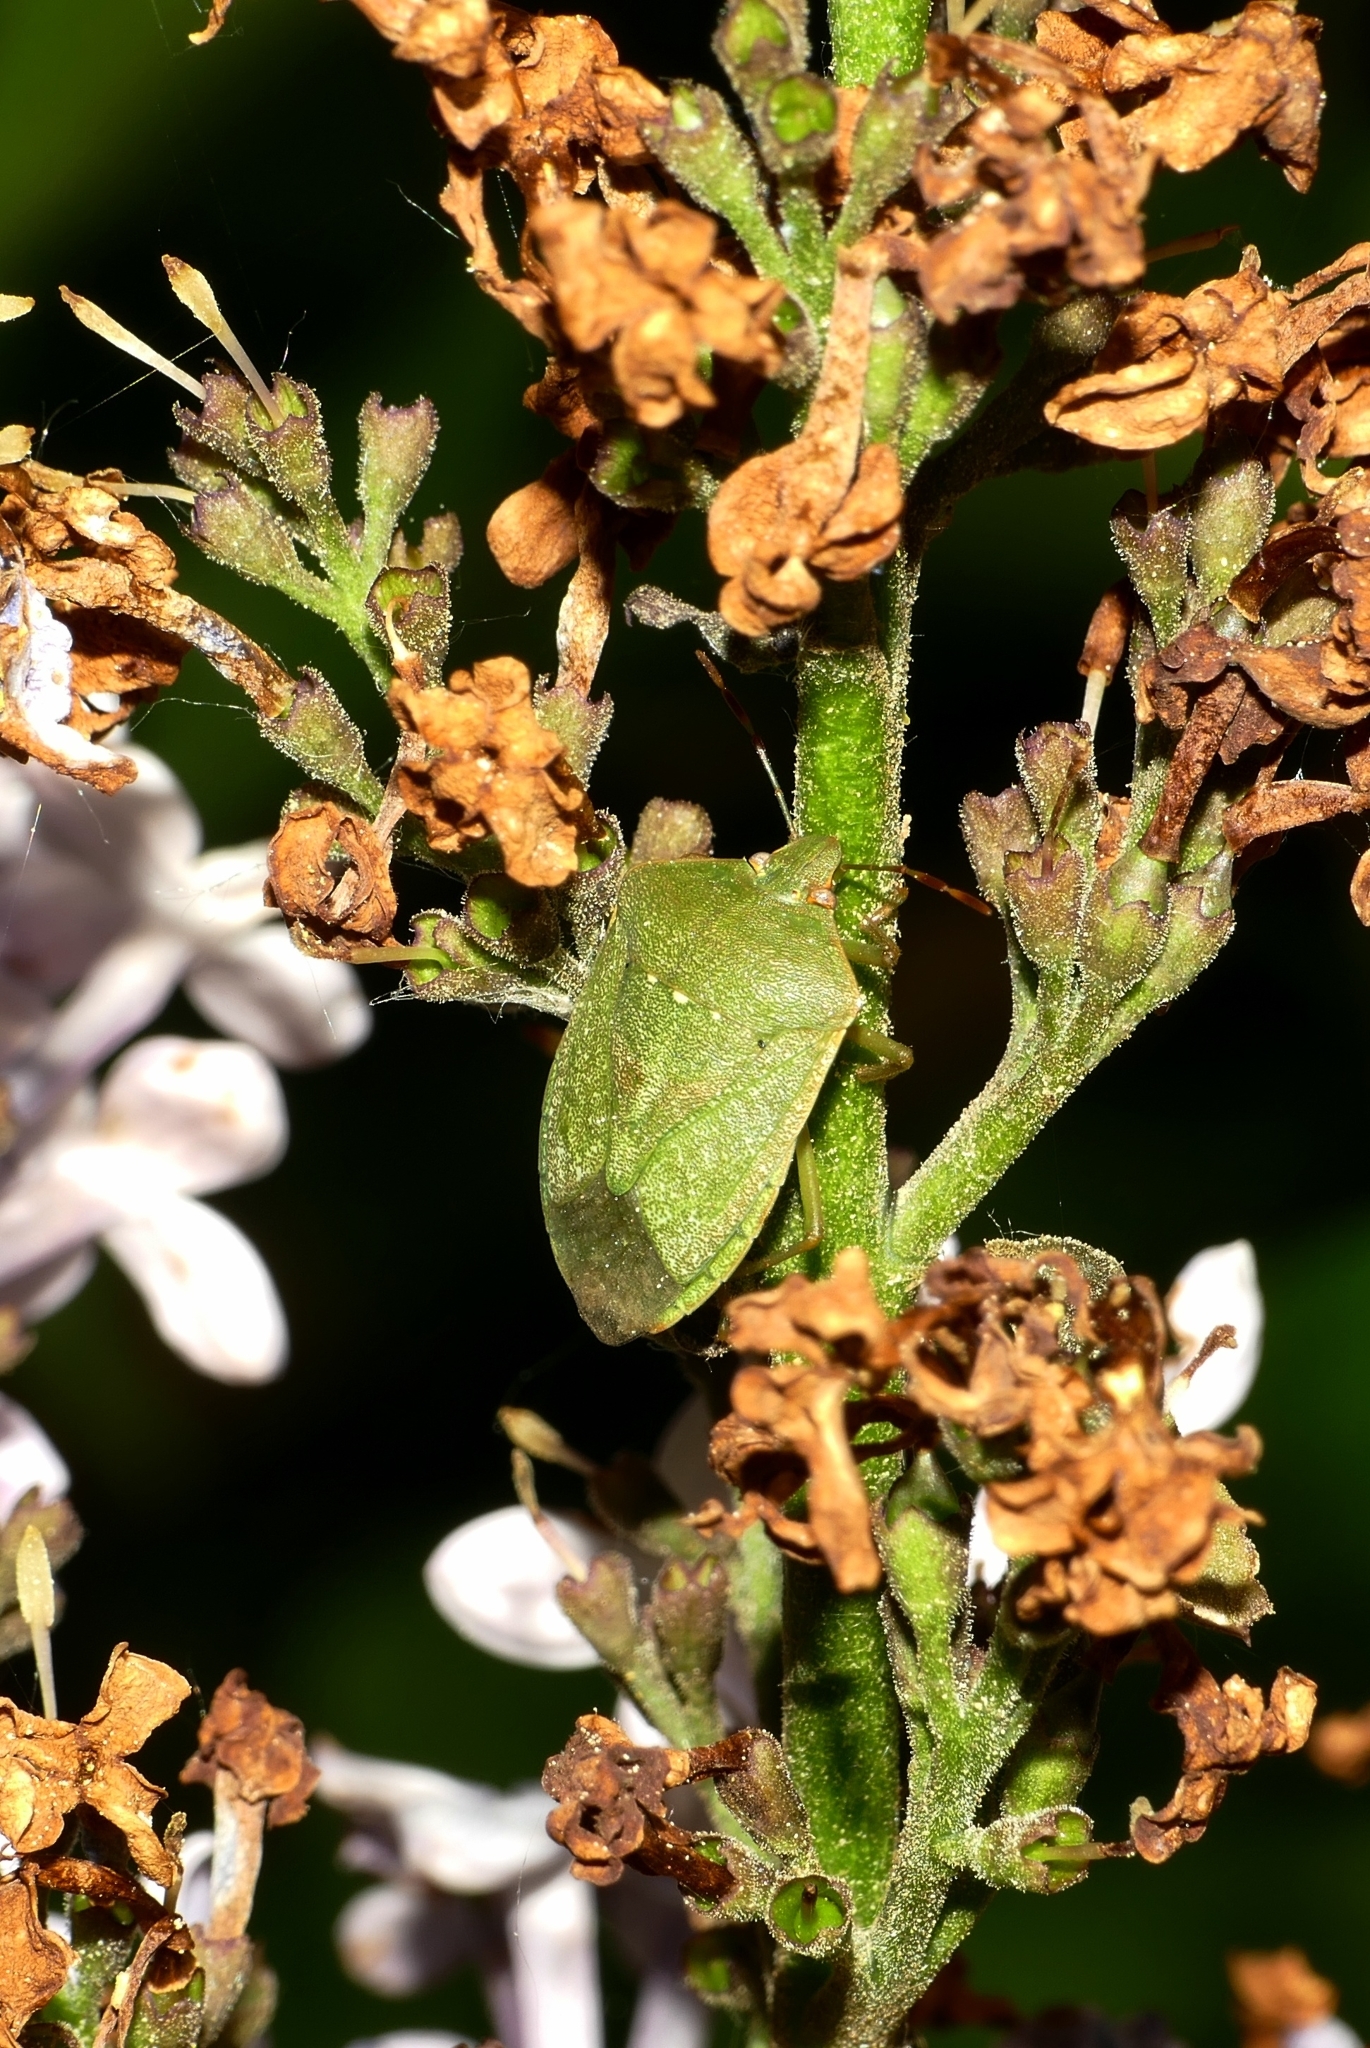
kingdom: Animalia
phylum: Arthropoda
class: Insecta
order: Hemiptera
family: Pentatomidae
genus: Nezara
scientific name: Nezara viridula
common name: Southern green stink bug
